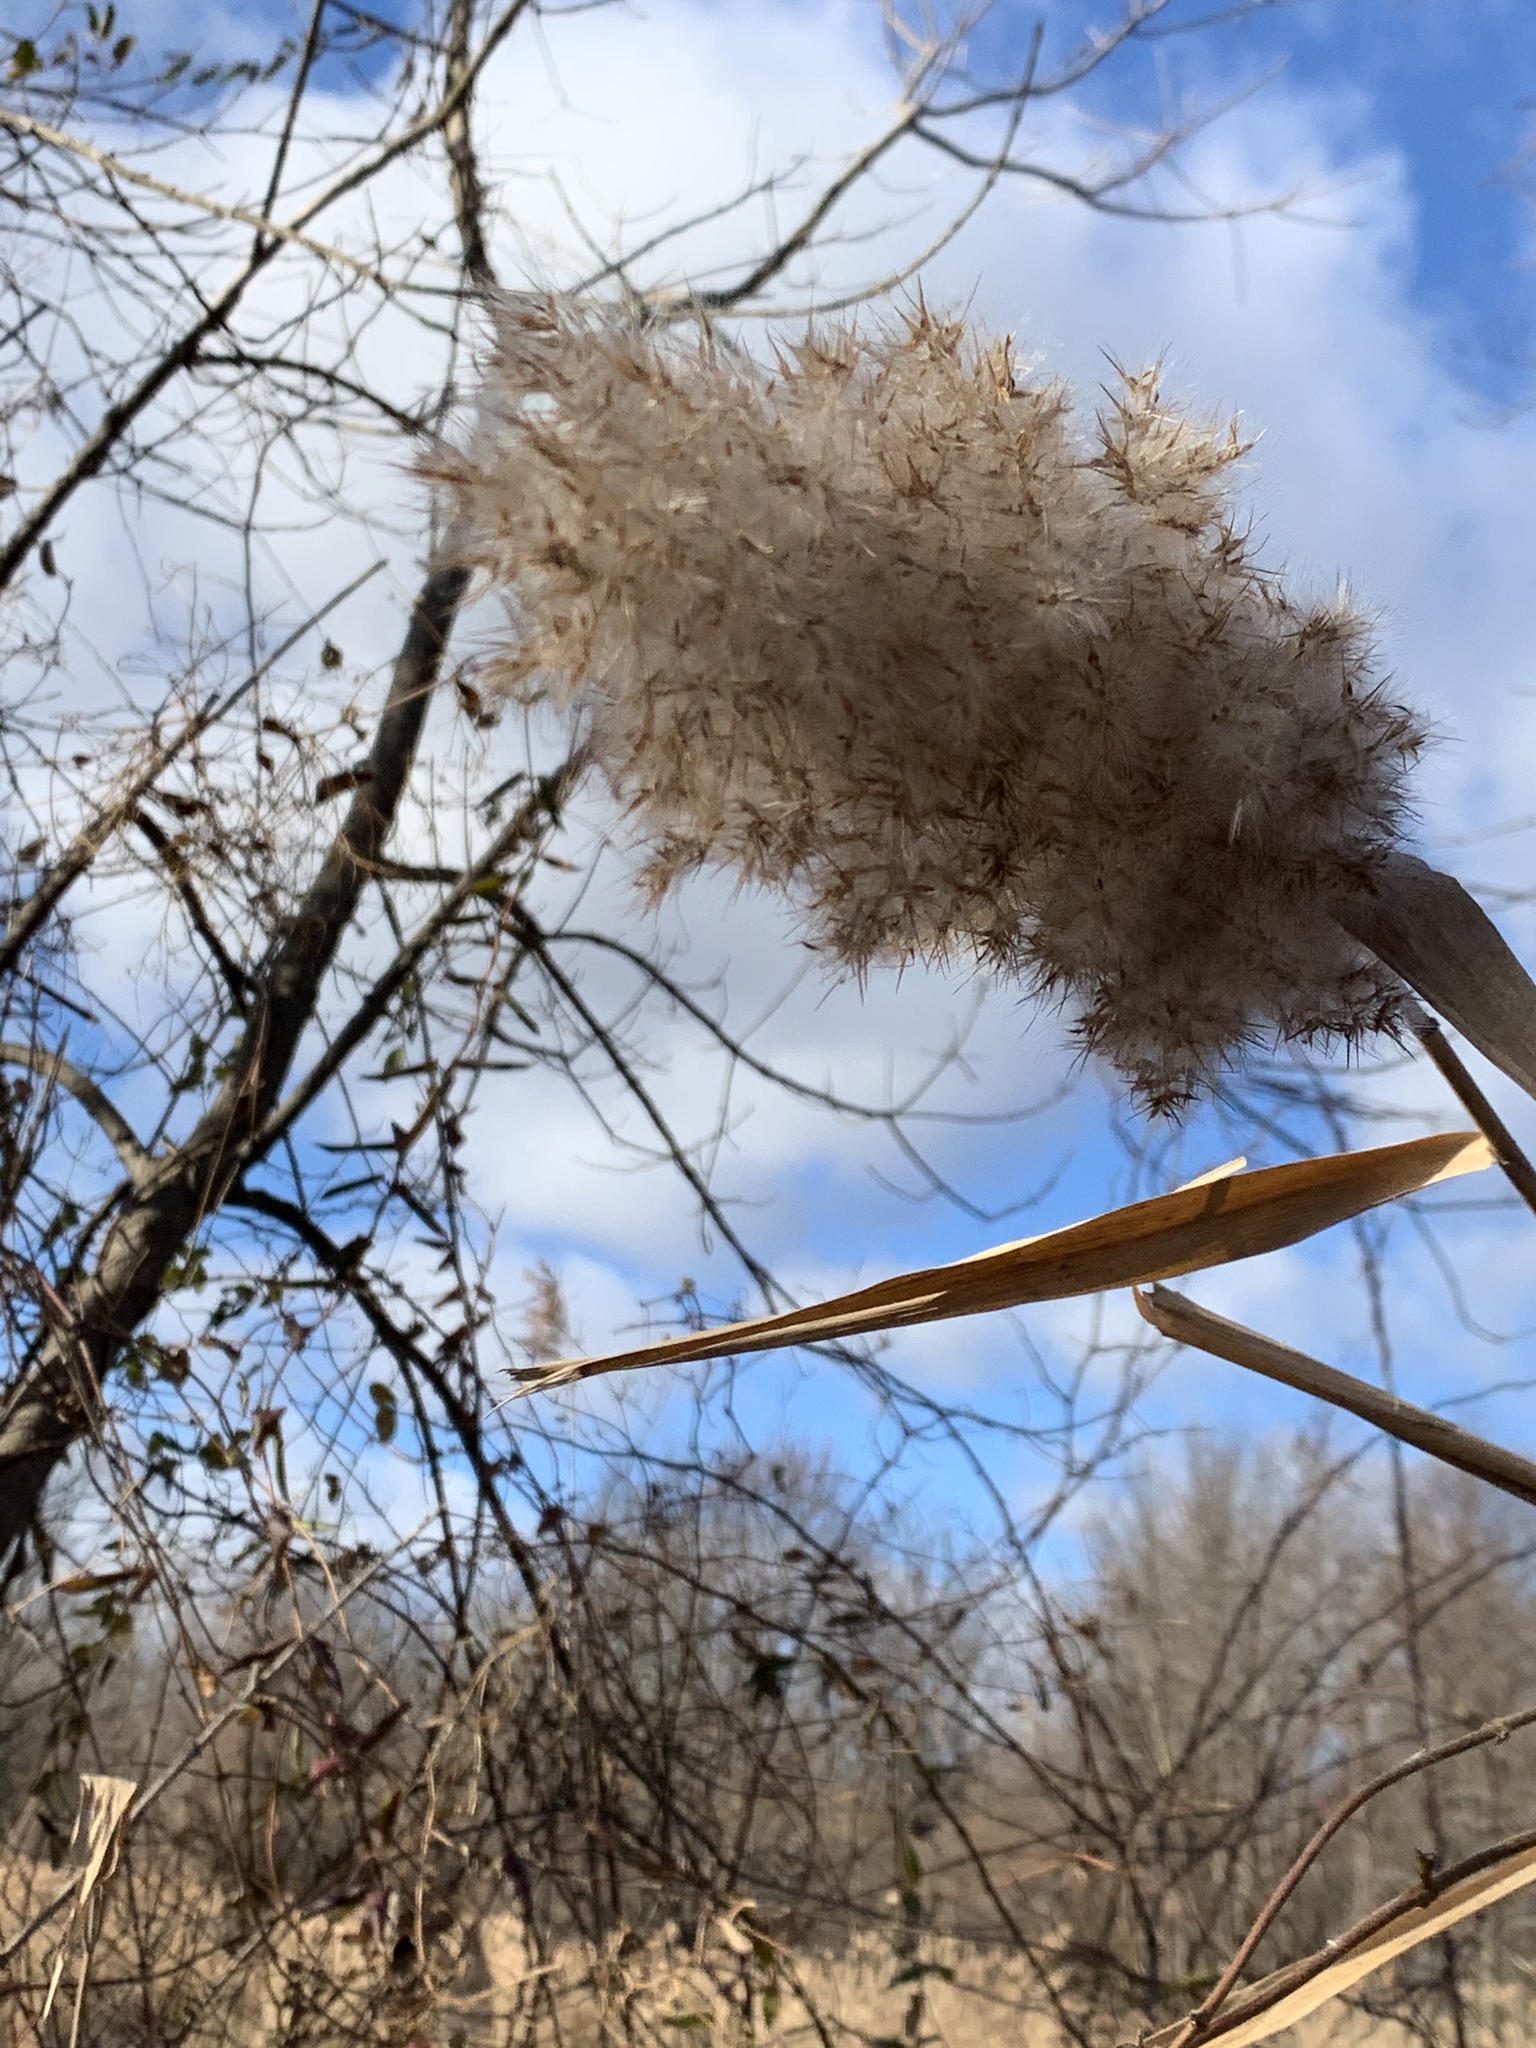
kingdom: Plantae
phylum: Tracheophyta
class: Liliopsida
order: Poales
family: Poaceae
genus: Phragmites
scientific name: Phragmites australis
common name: Common reed
